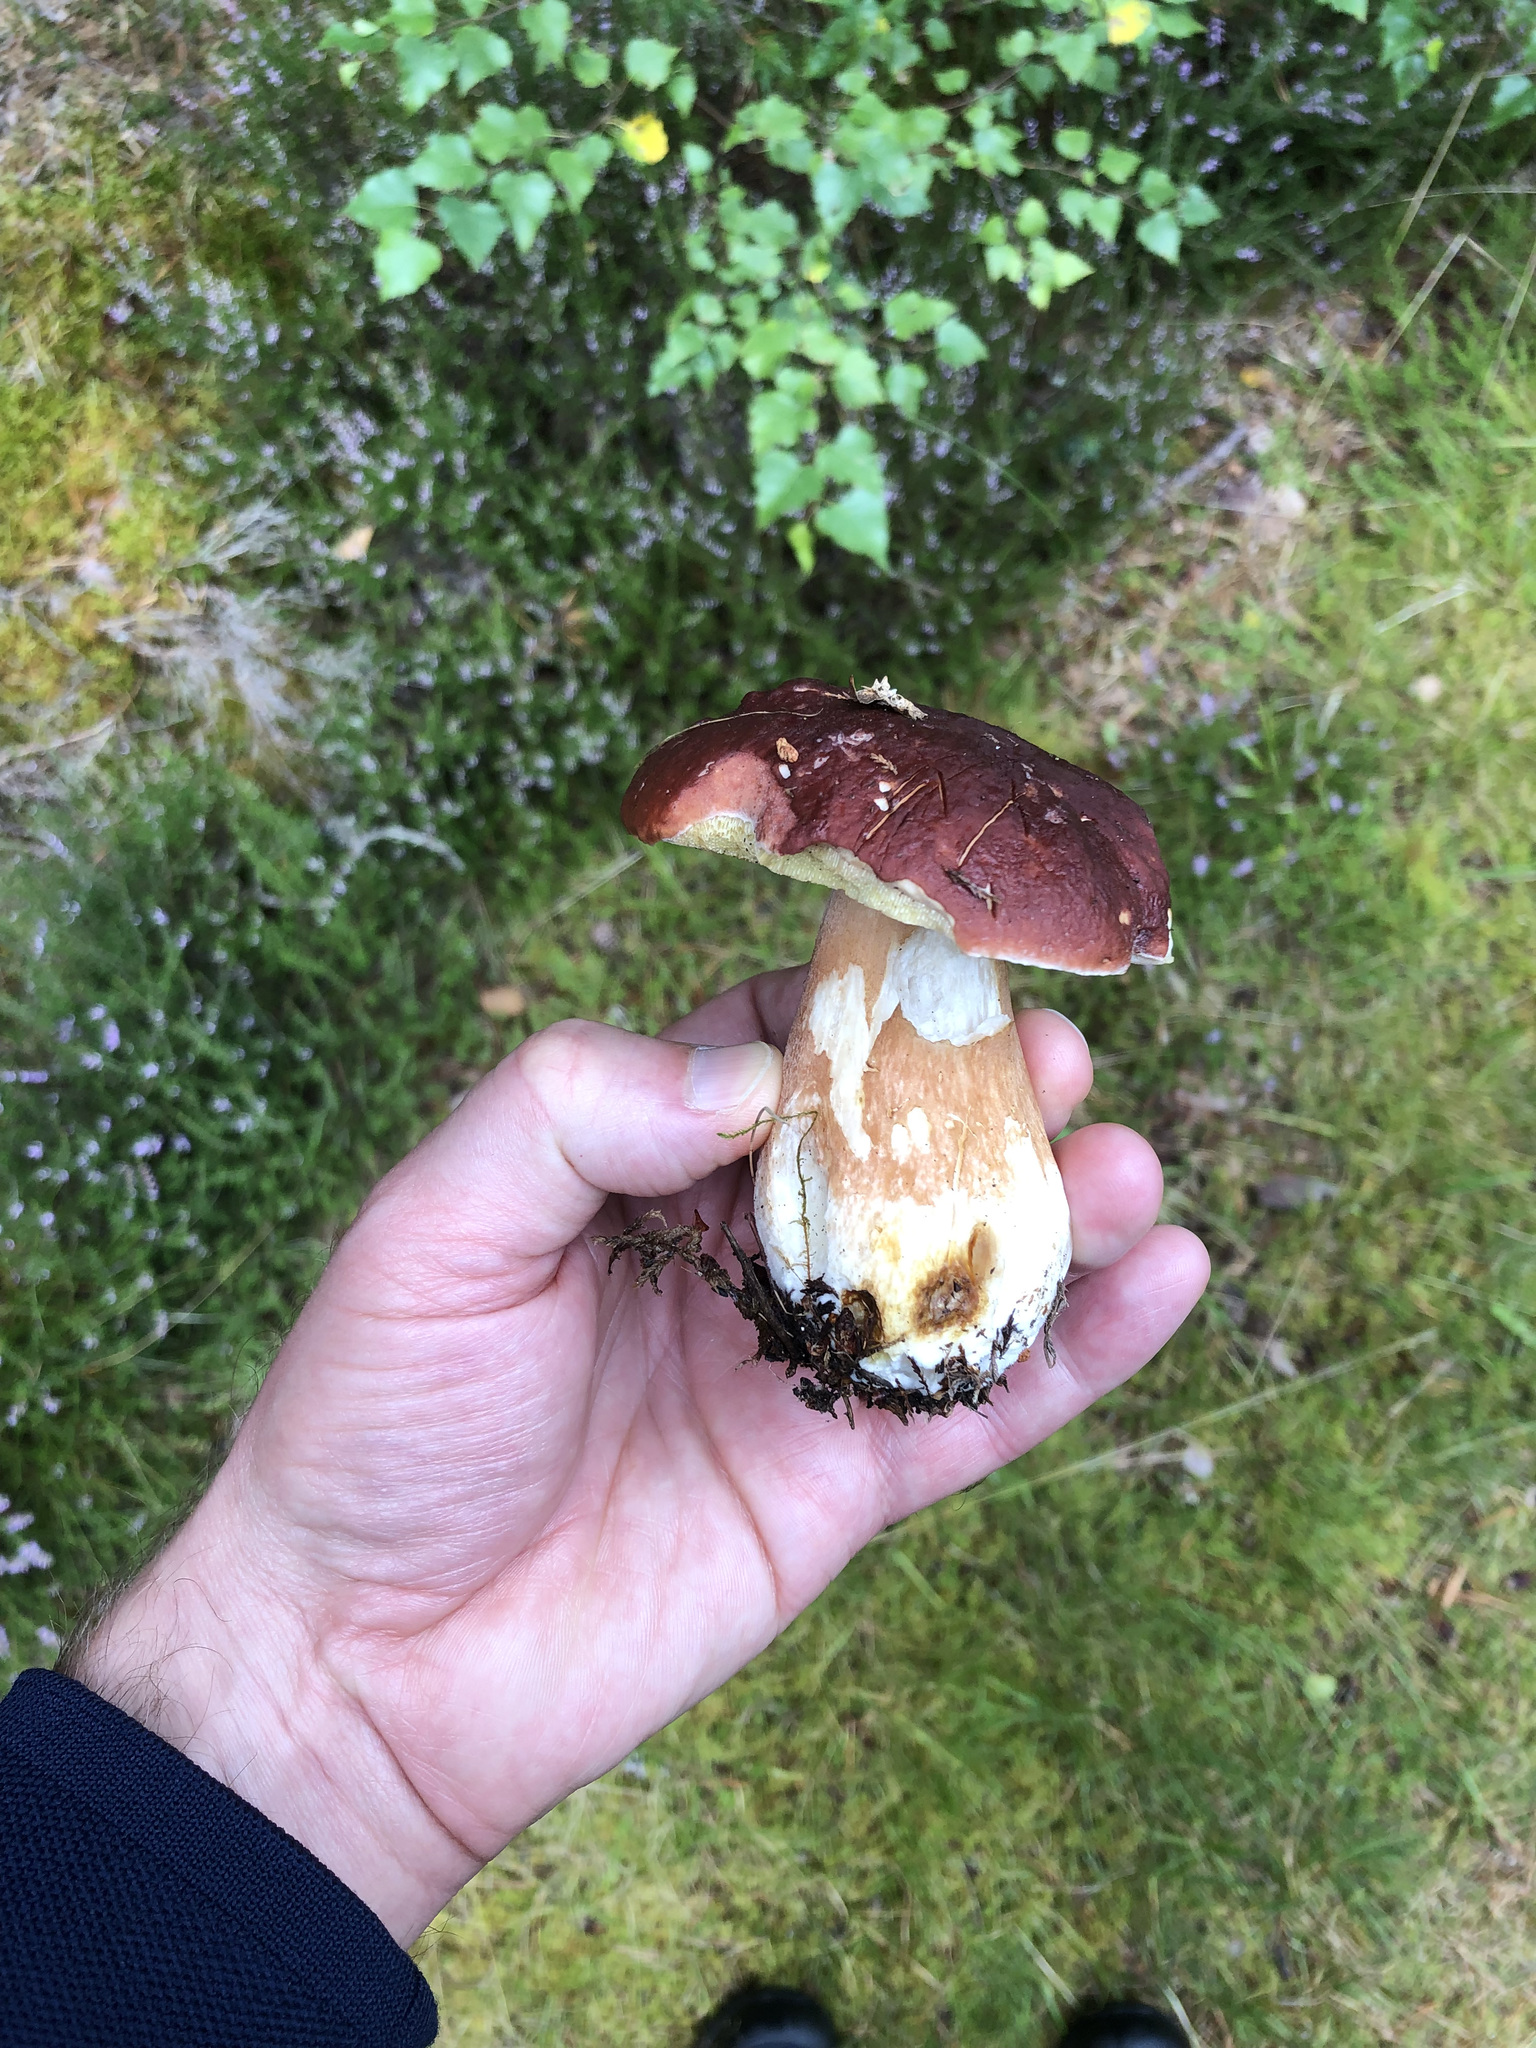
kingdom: Fungi
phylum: Basidiomycota
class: Agaricomycetes
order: Boletales
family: Boletaceae
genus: Boletus
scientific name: Boletus pinophilus
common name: Pine bolete
